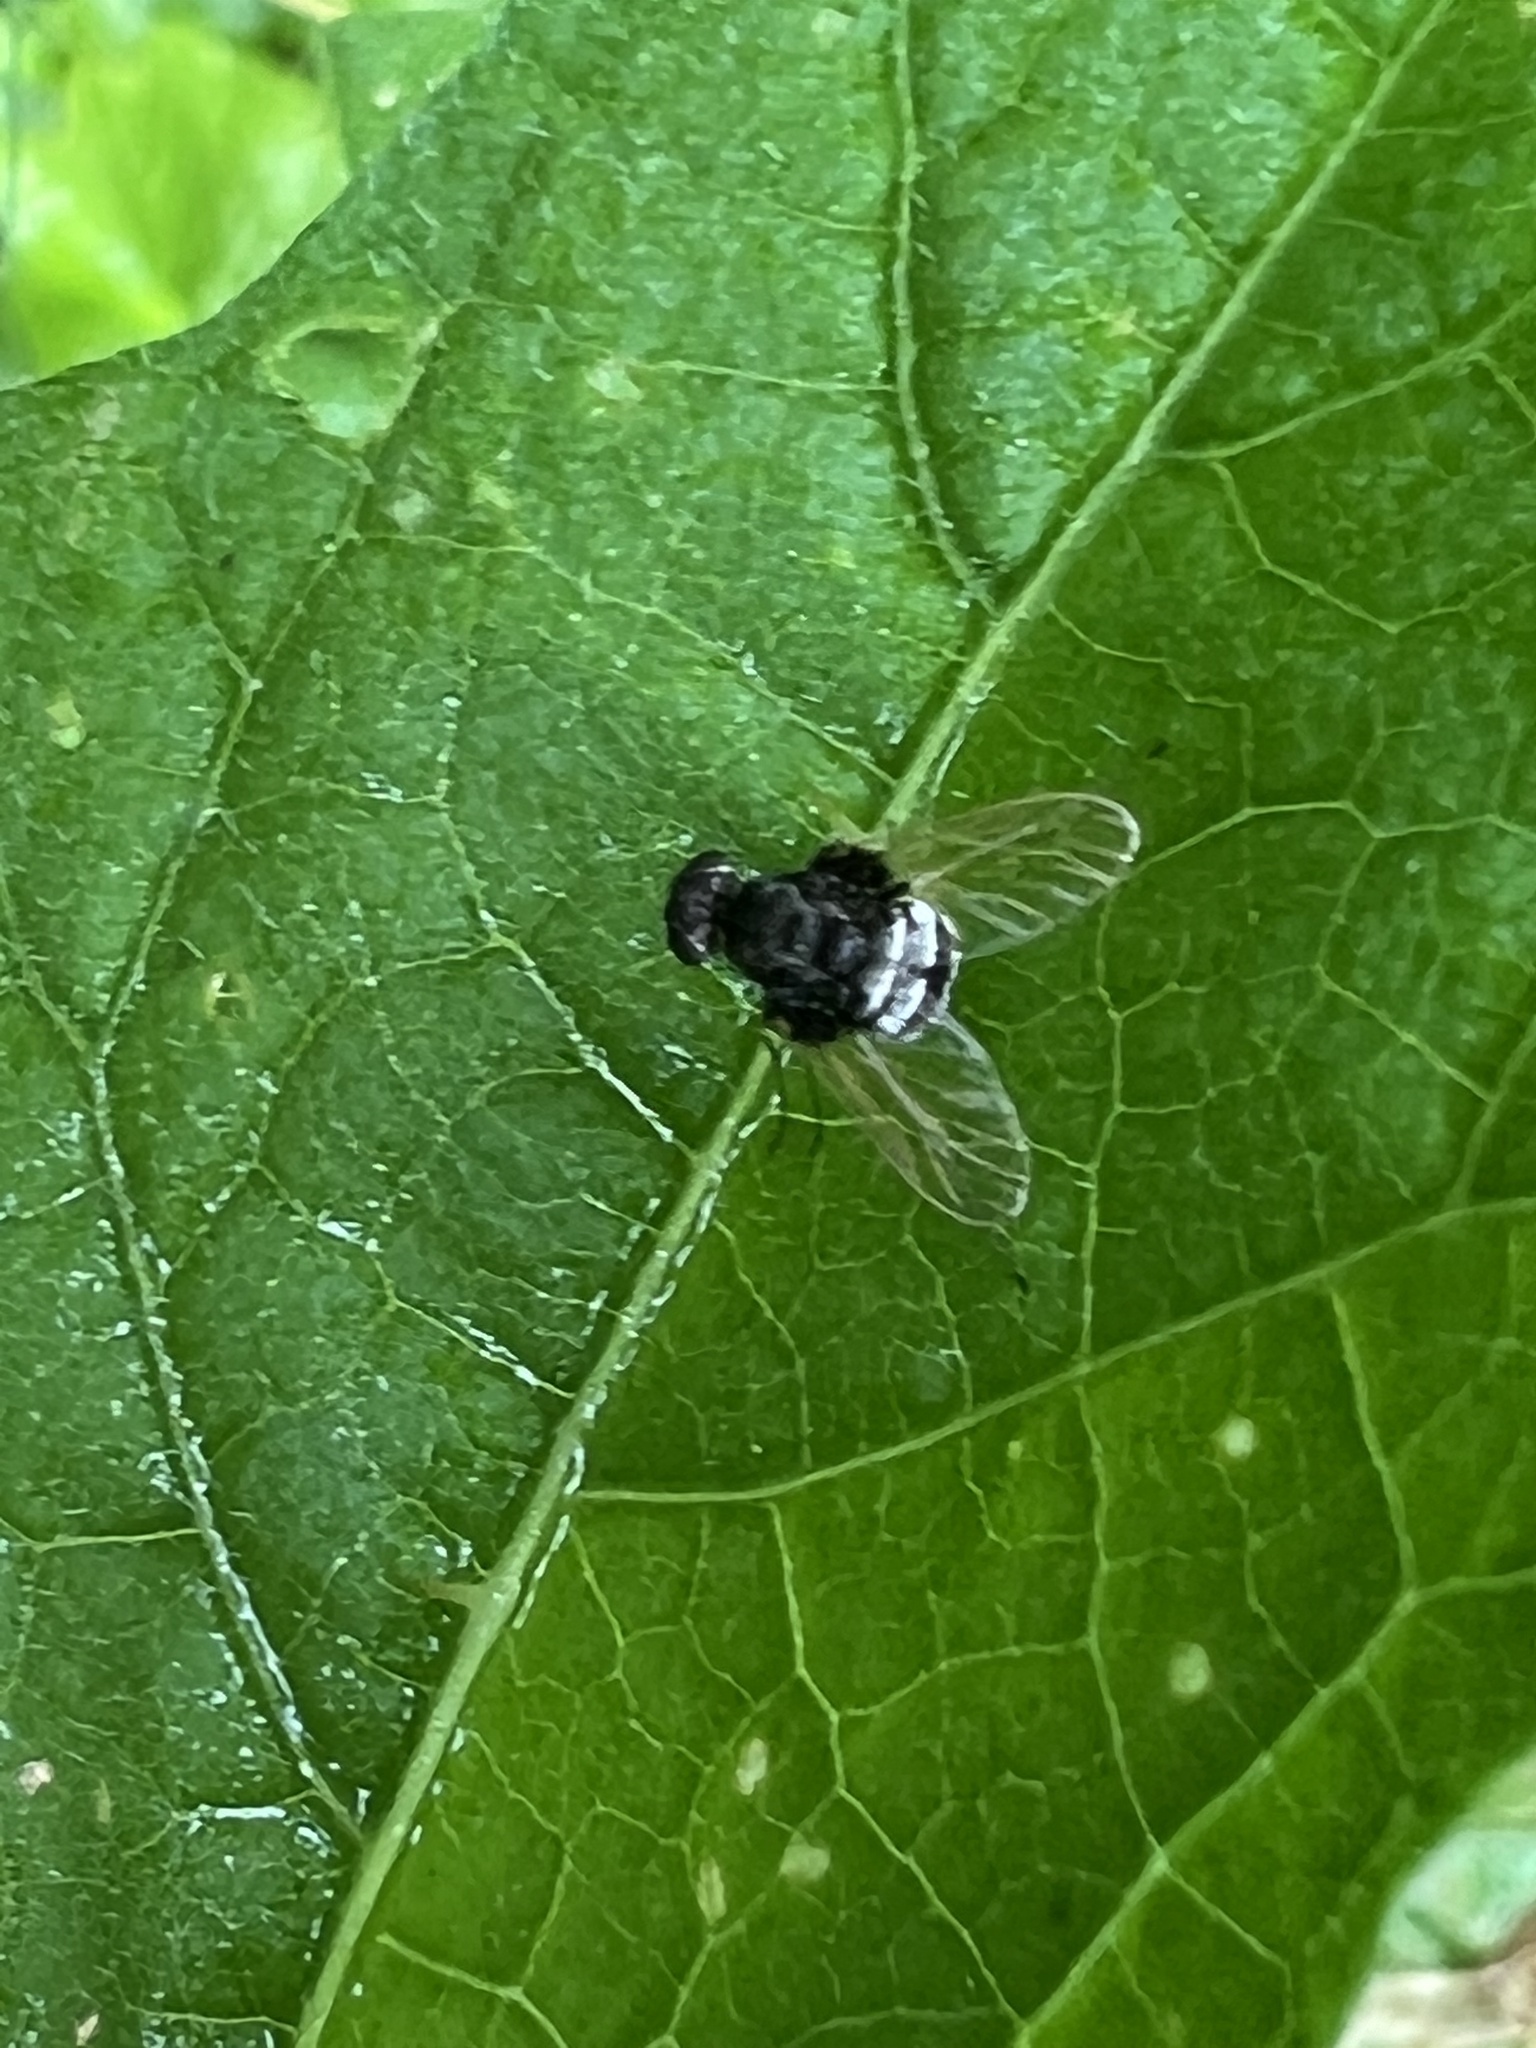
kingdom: Animalia
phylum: Arthropoda
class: Insecta
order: Diptera
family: Rhagionidae
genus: Chrysopilus
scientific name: Chrysopilus basilaris
